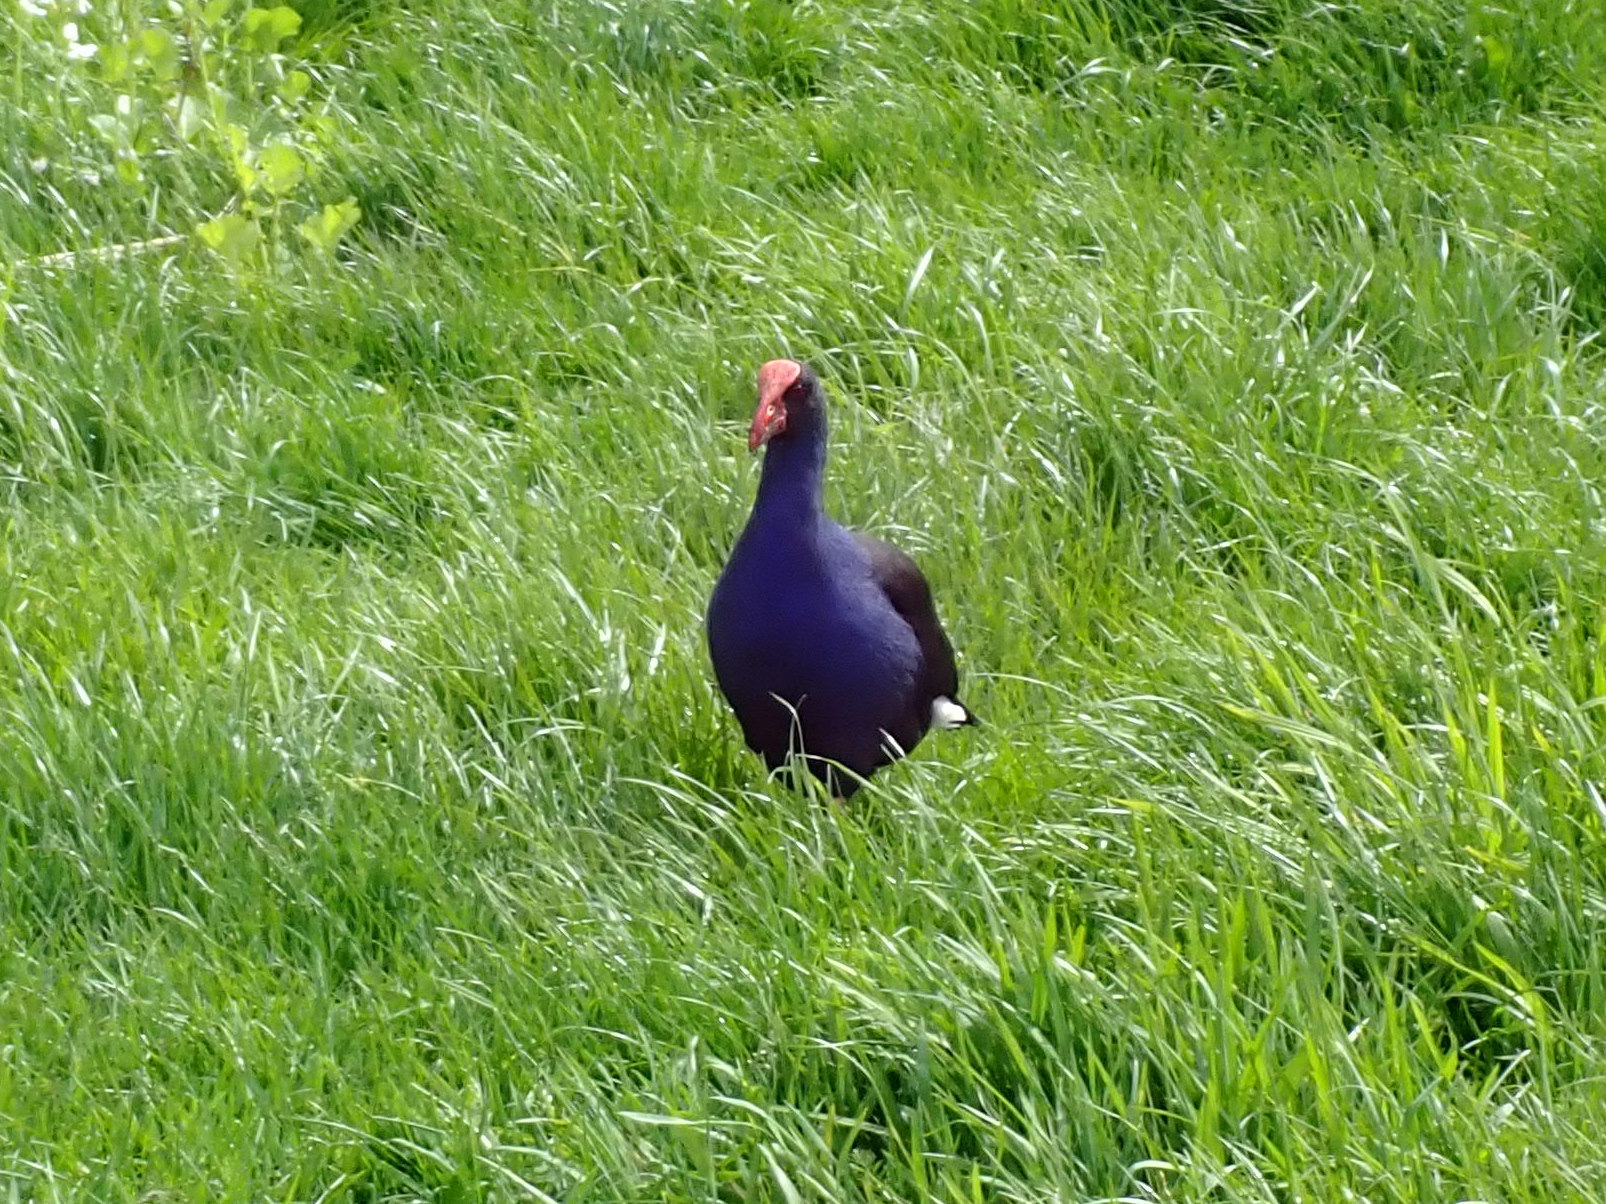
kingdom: Animalia
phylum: Chordata
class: Aves
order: Gruiformes
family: Rallidae
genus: Porphyrio
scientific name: Porphyrio melanotus
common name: Australasian swamphen
